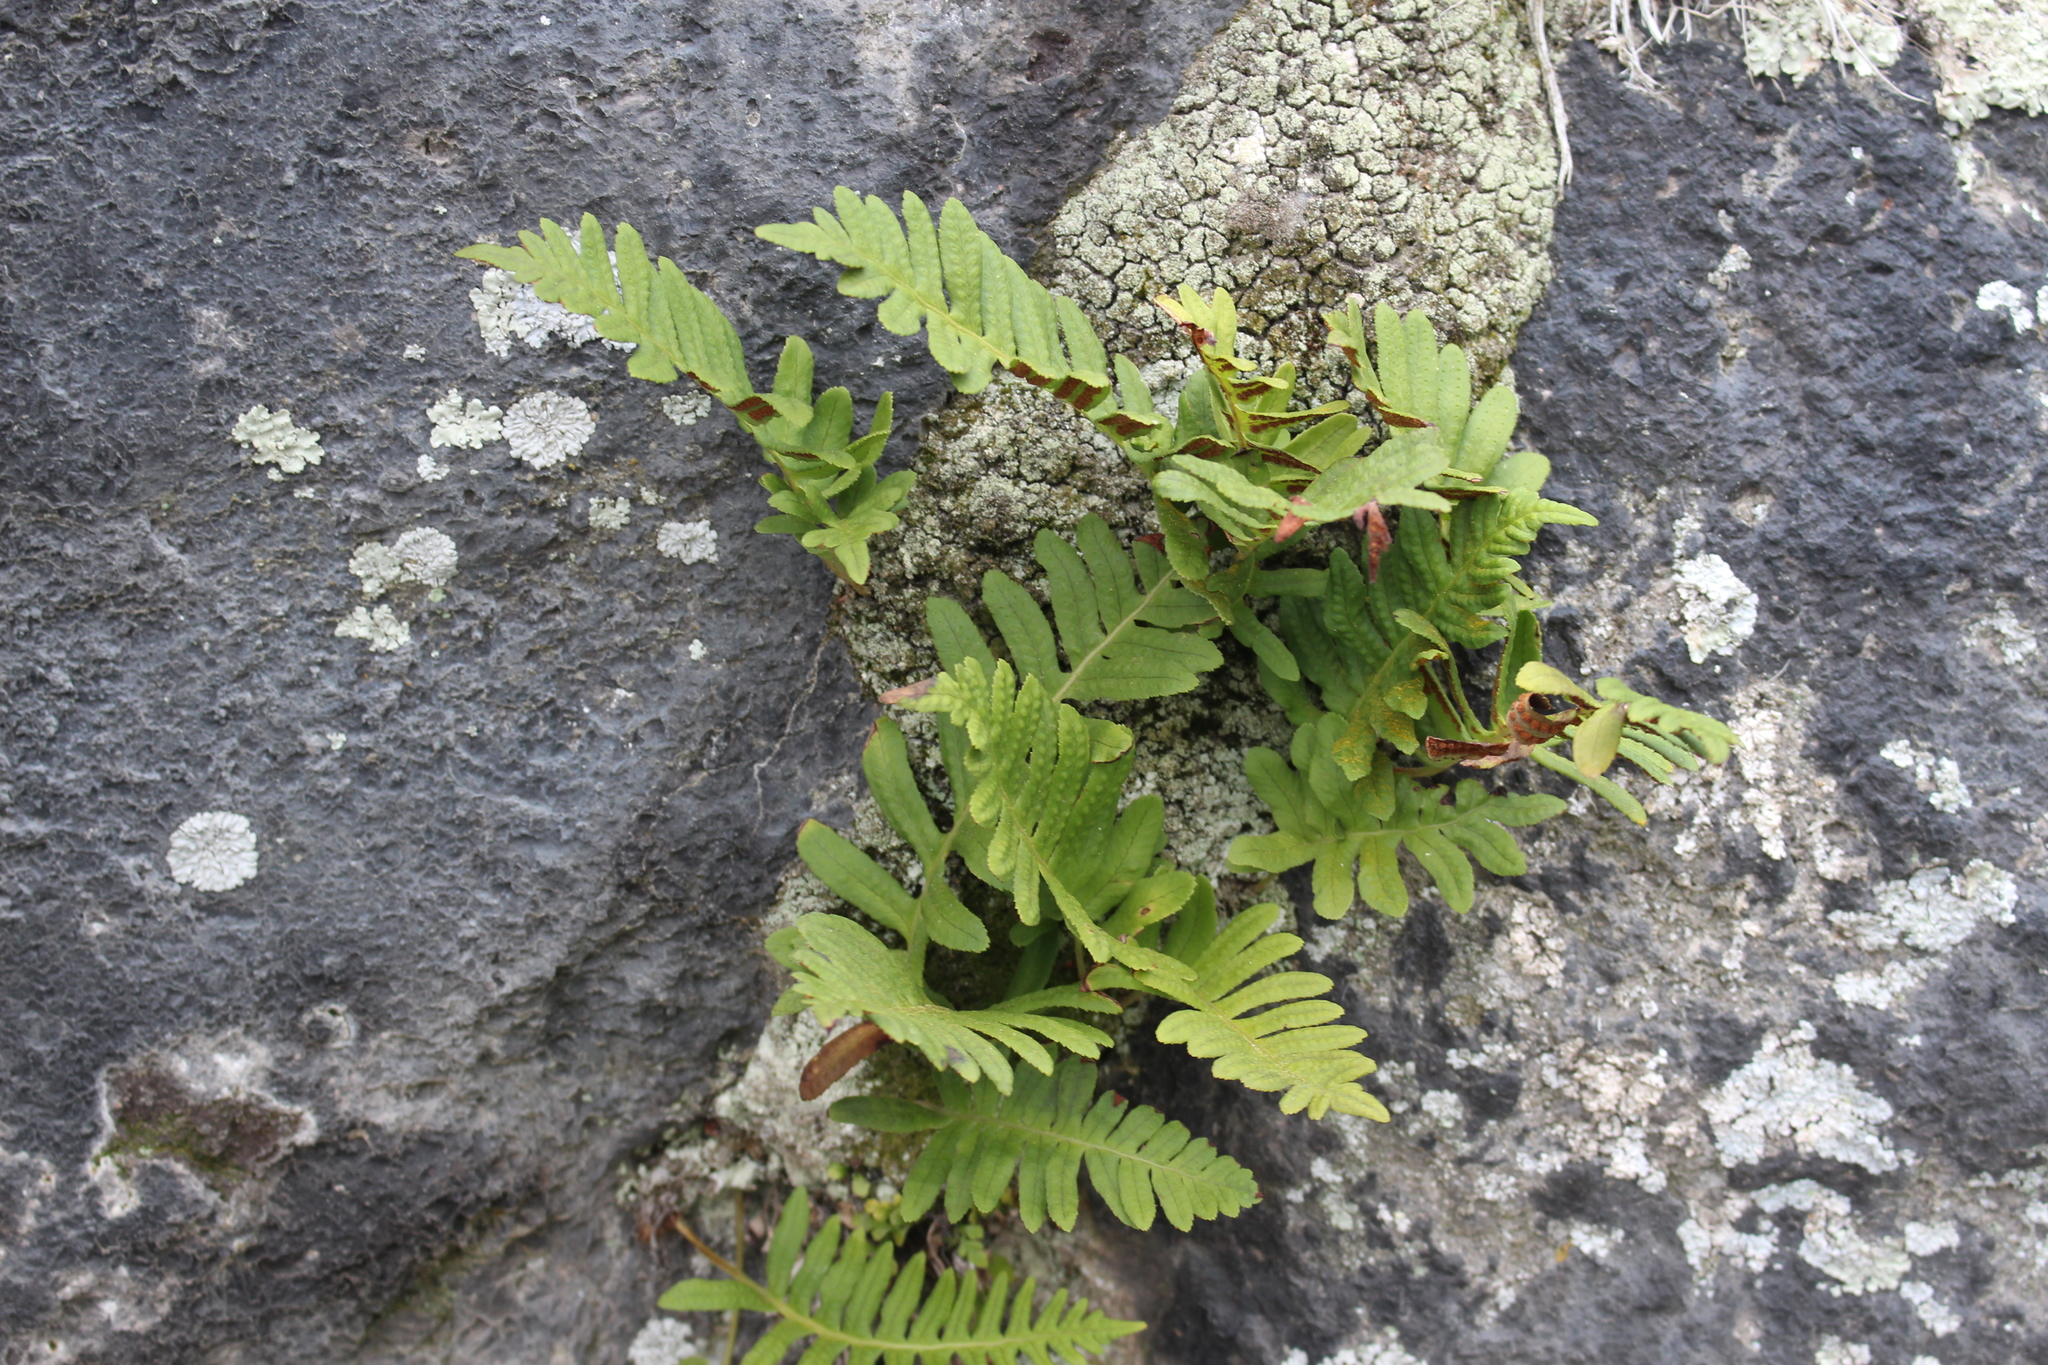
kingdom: Plantae
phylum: Tracheophyta
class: Polypodiopsida
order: Polypodiales
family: Polypodiaceae
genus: Polypodium
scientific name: Polypodium vulgare
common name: Common polypody
